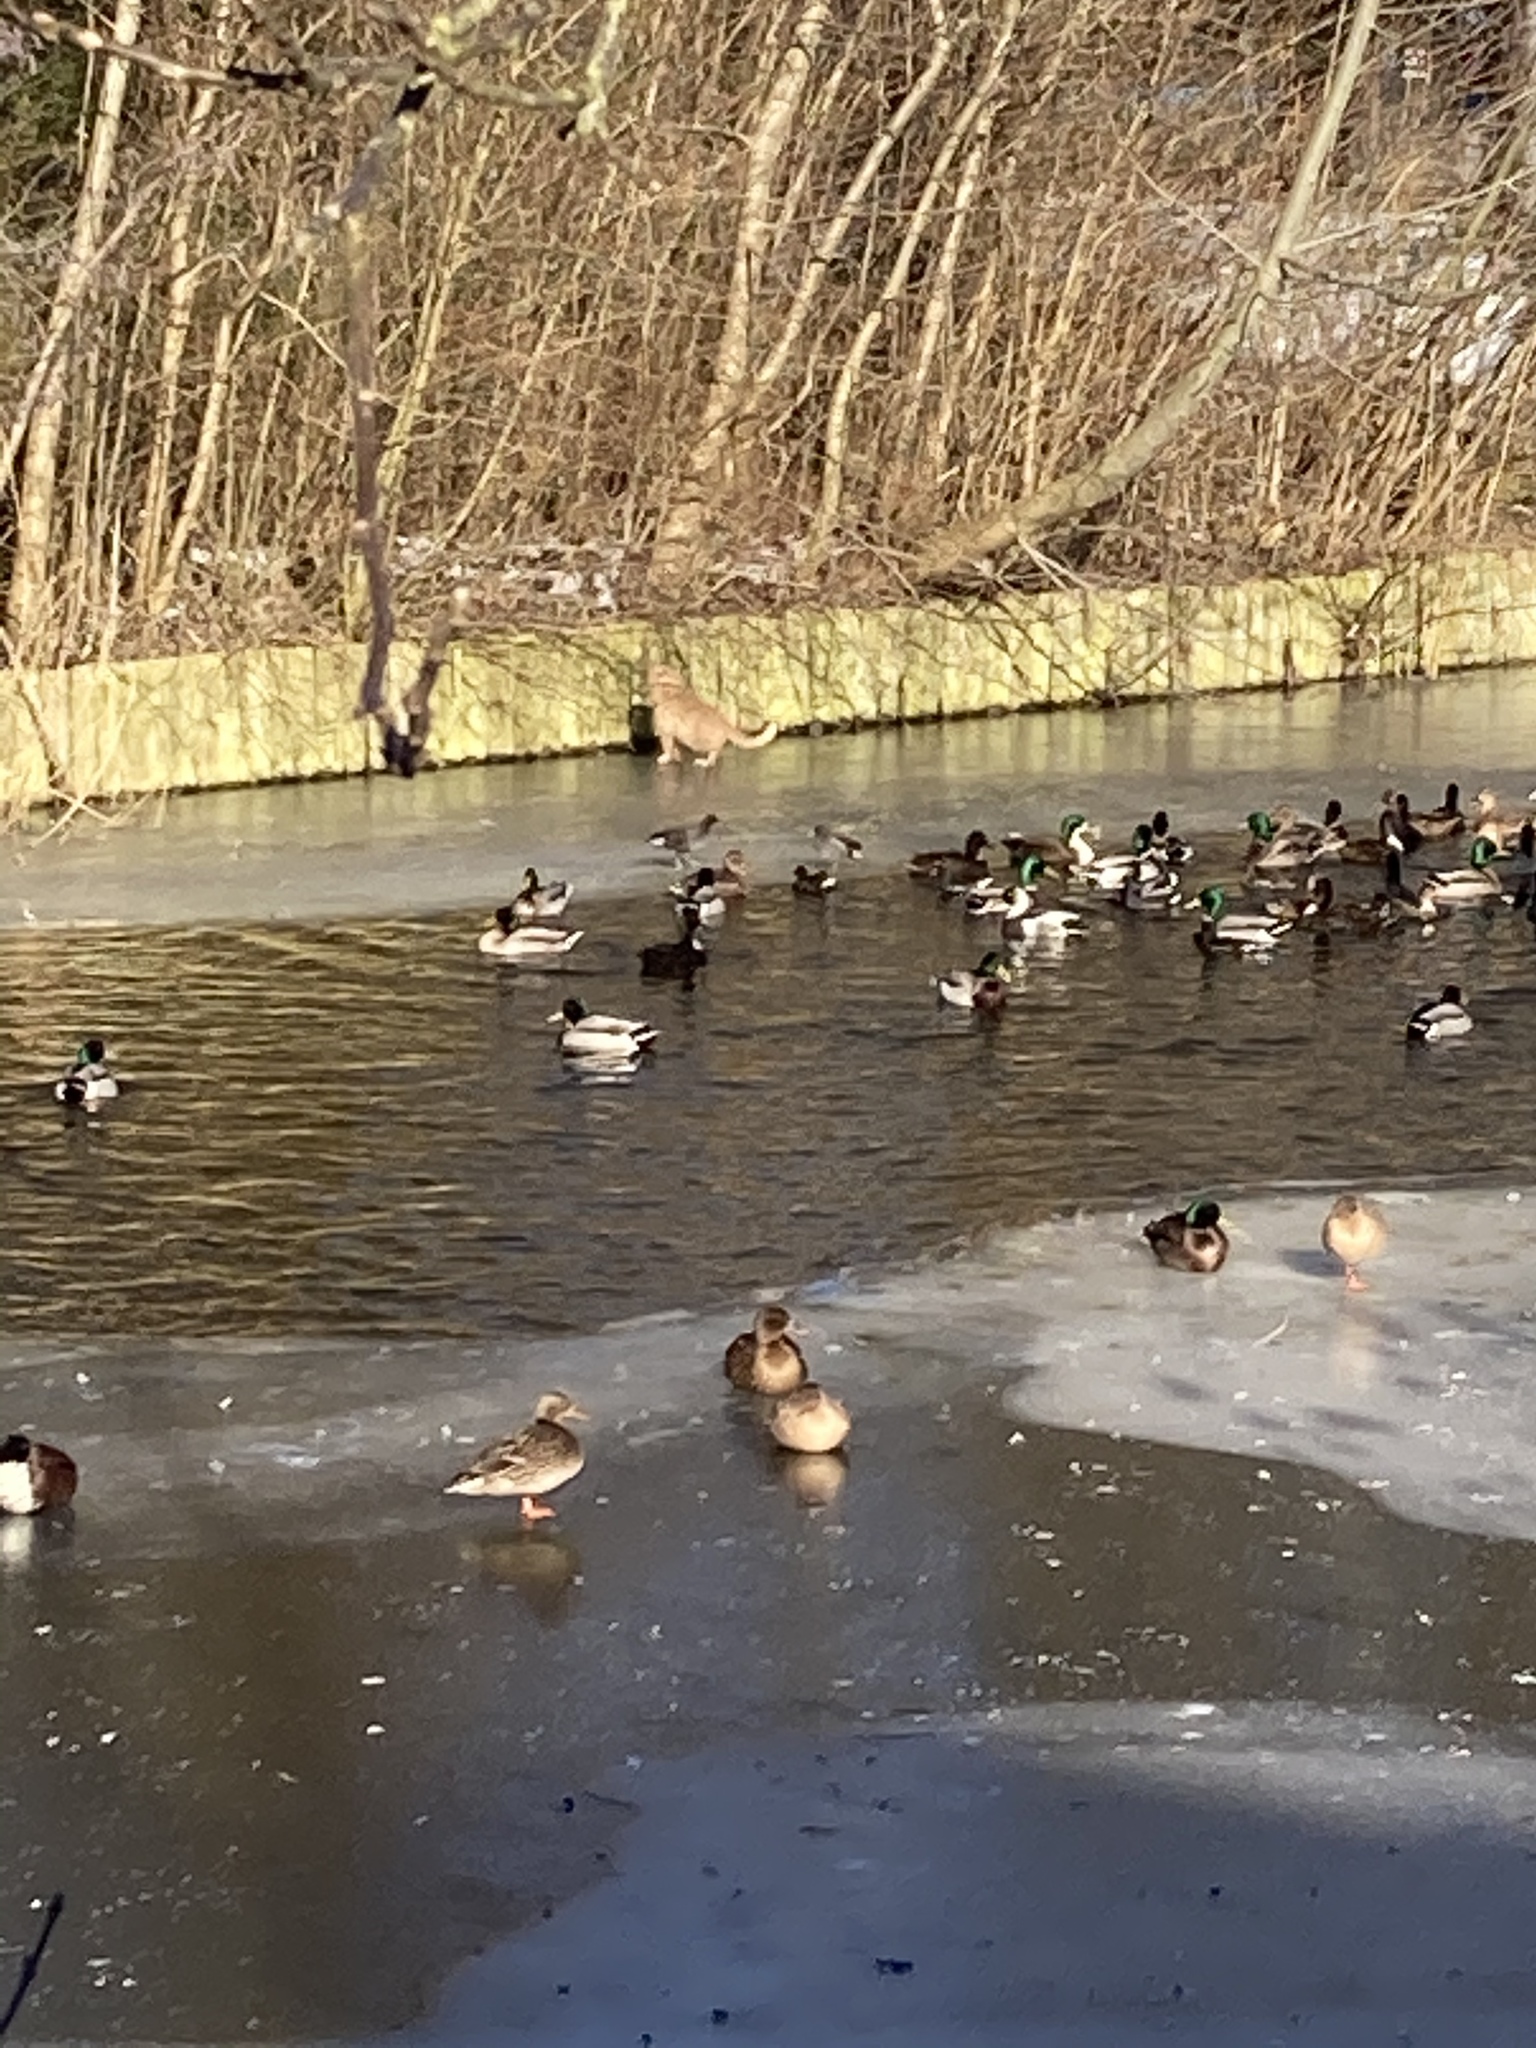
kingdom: Animalia
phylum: Chordata
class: Aves
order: Anseriformes
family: Anatidae
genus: Anas
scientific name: Anas platyrhynchos
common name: Mallard
